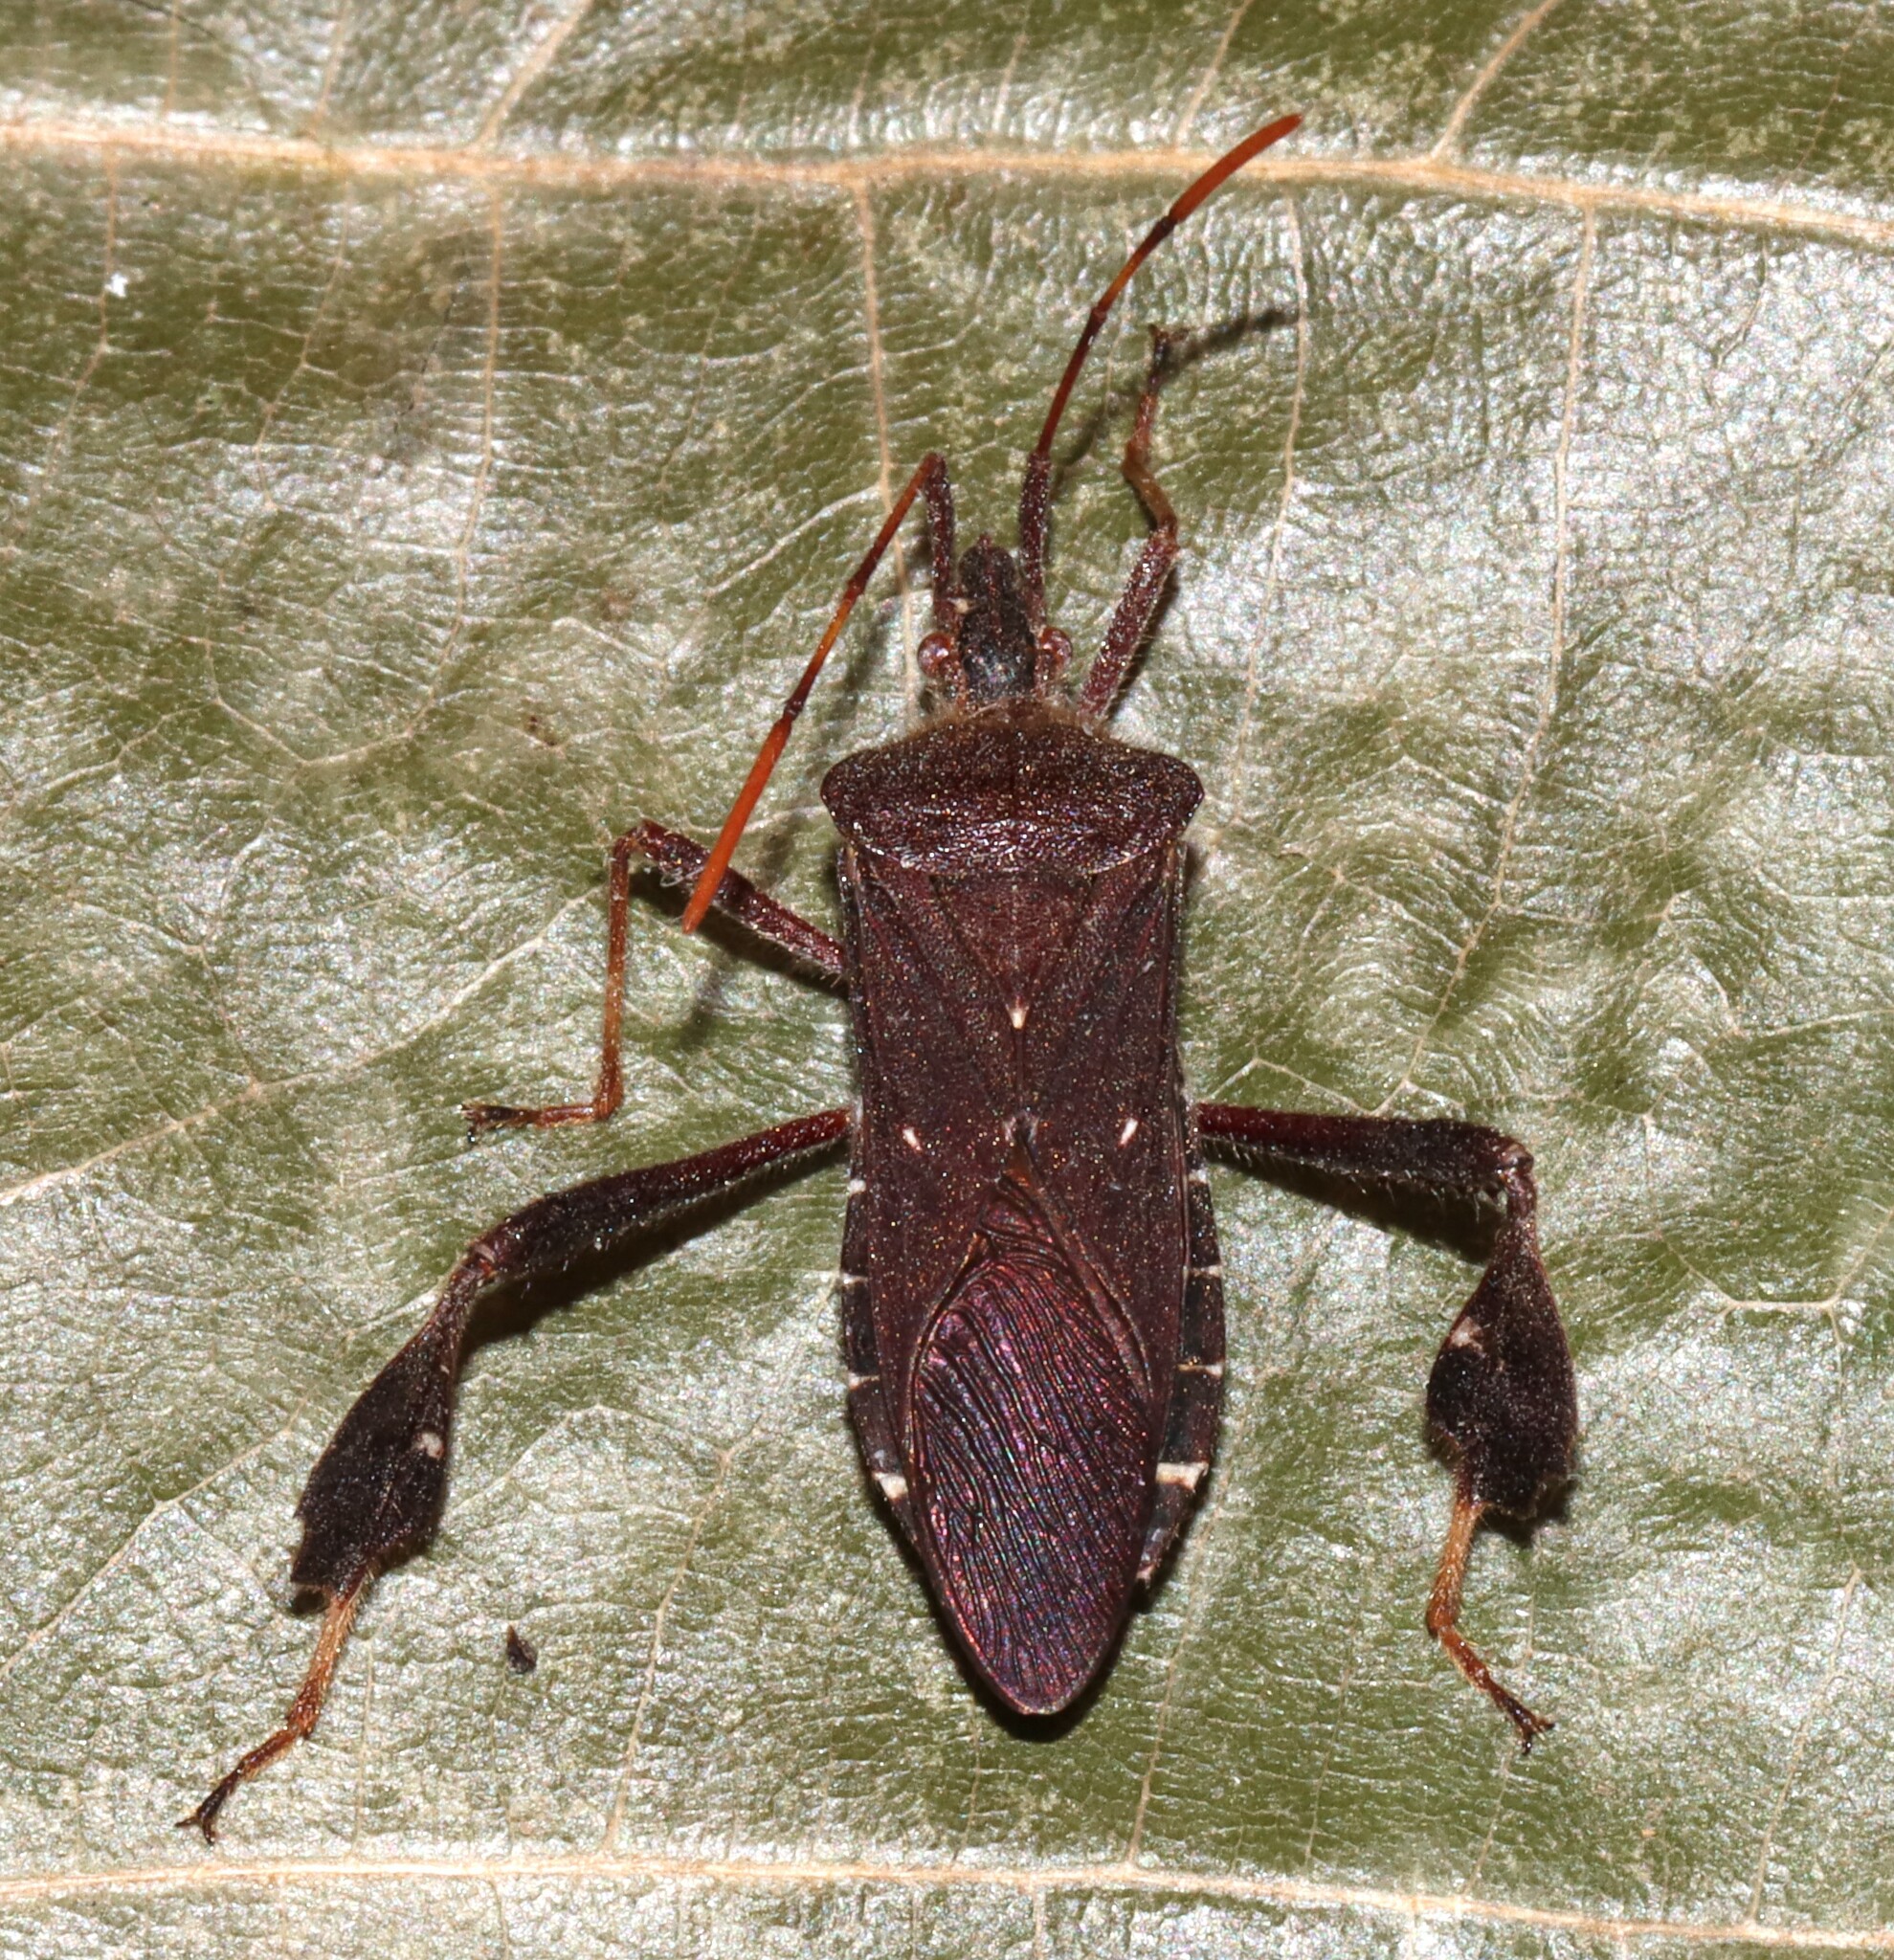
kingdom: Animalia
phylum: Arthropoda
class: Insecta
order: Hemiptera
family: Coreidae
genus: Leptoglossus
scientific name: Leptoglossus oppositus
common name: Northern leaf-footed bug
